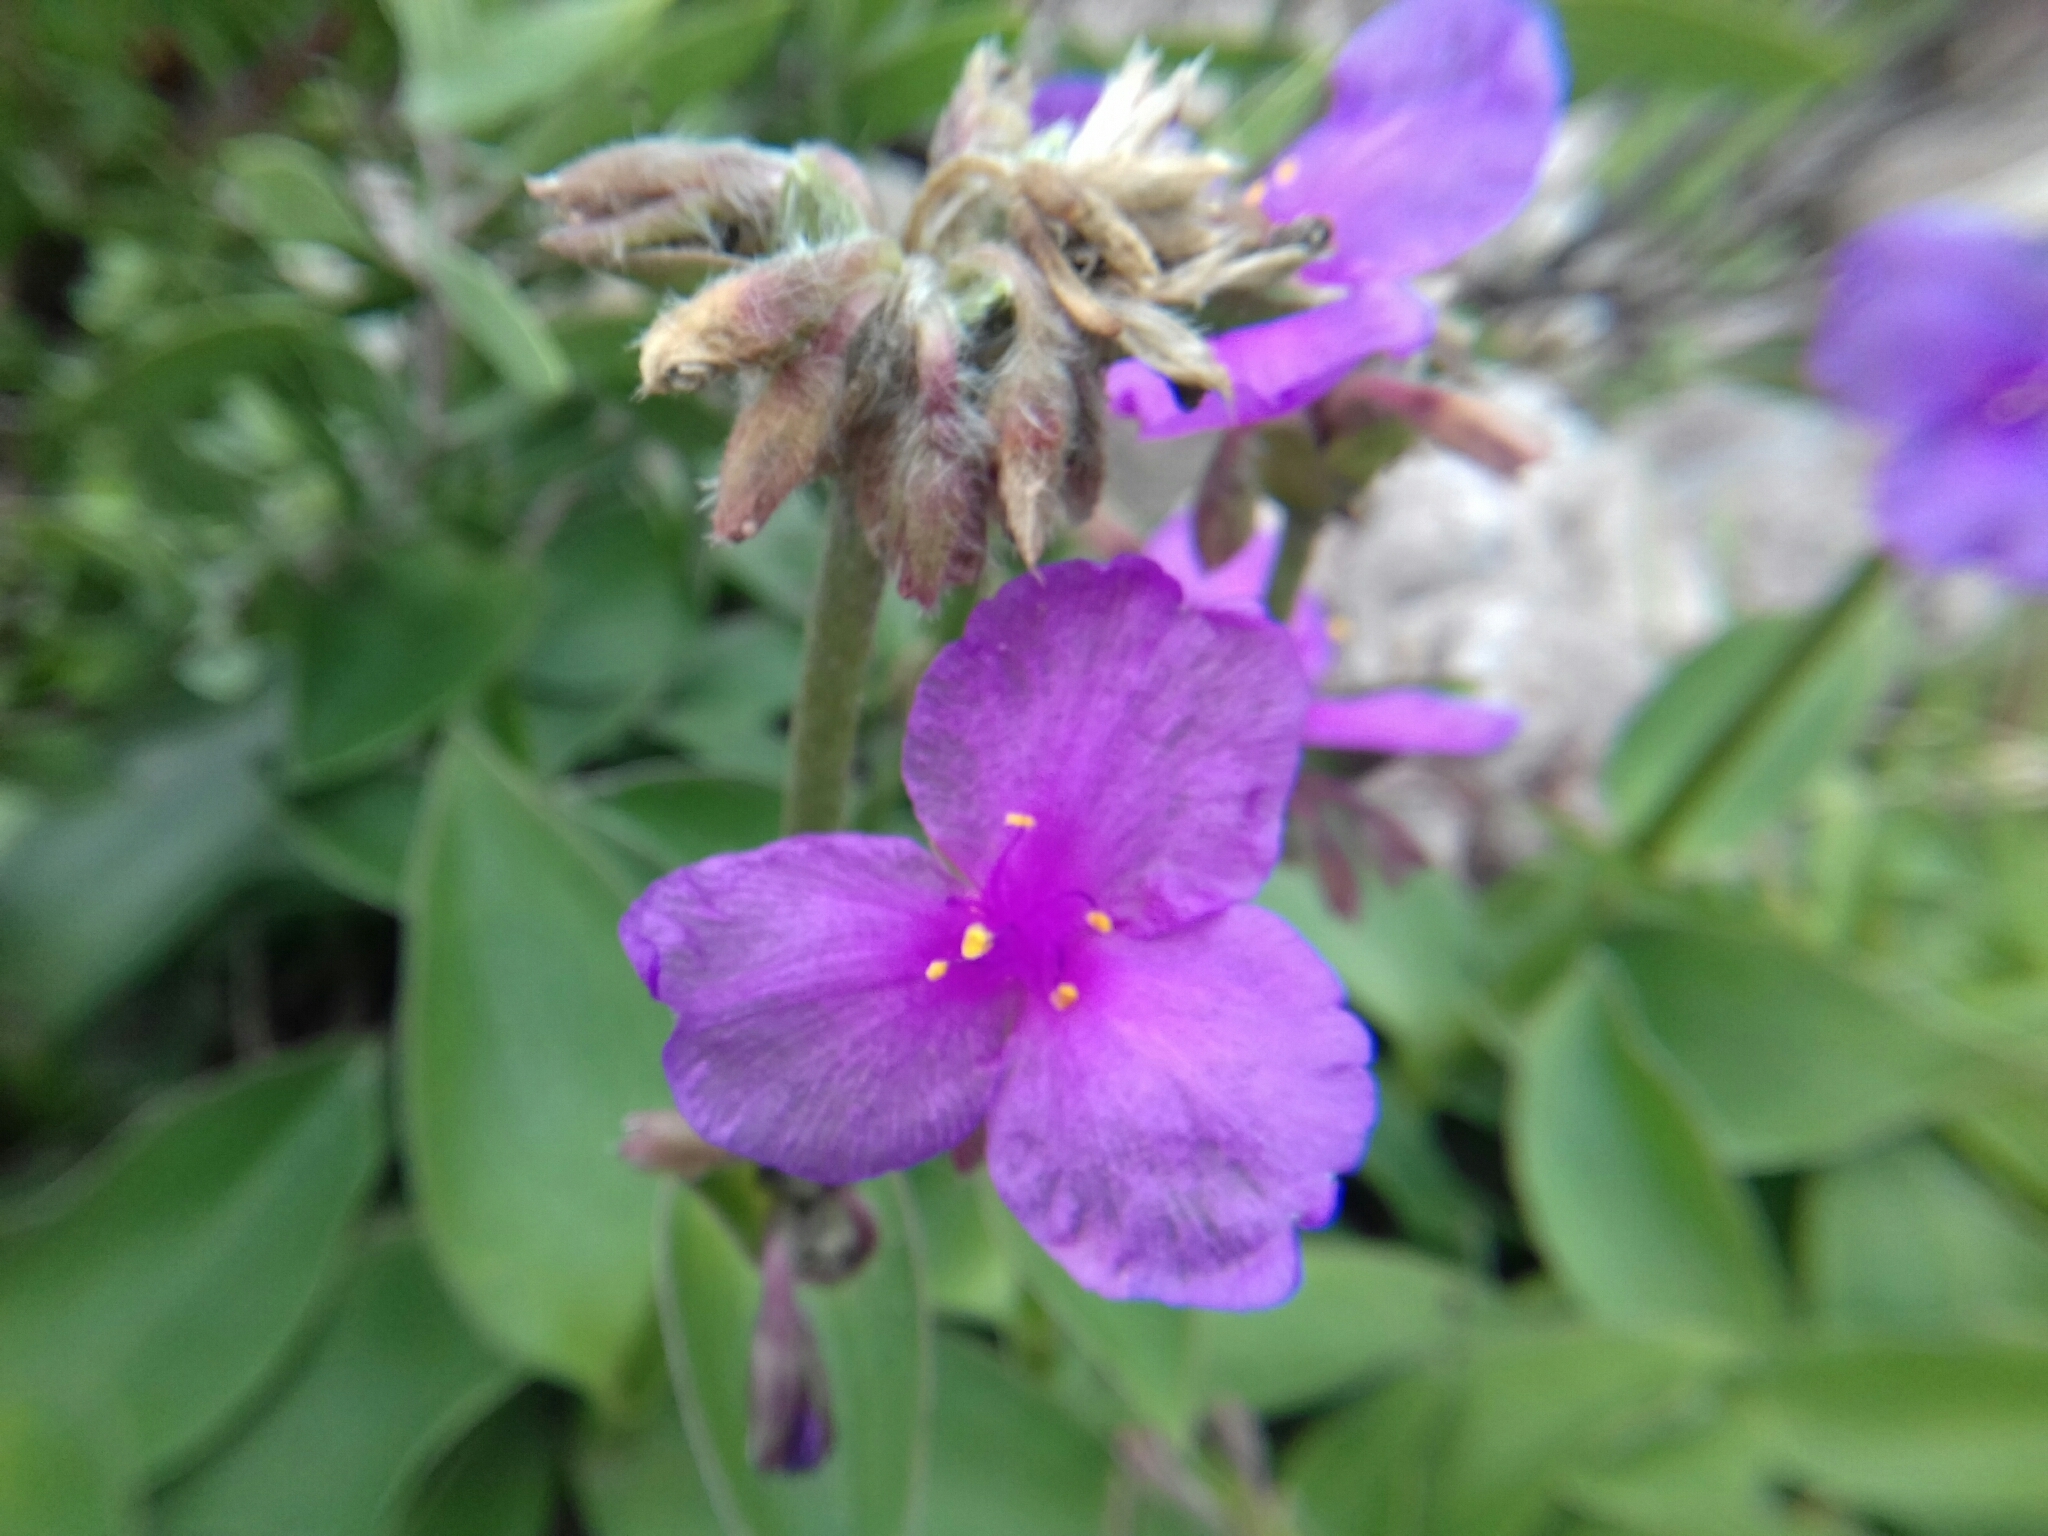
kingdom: Plantae
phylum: Tracheophyta
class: Liliopsida
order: Commelinales
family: Commelinaceae
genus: Tradescantia
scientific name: Tradescantia crassifolia
